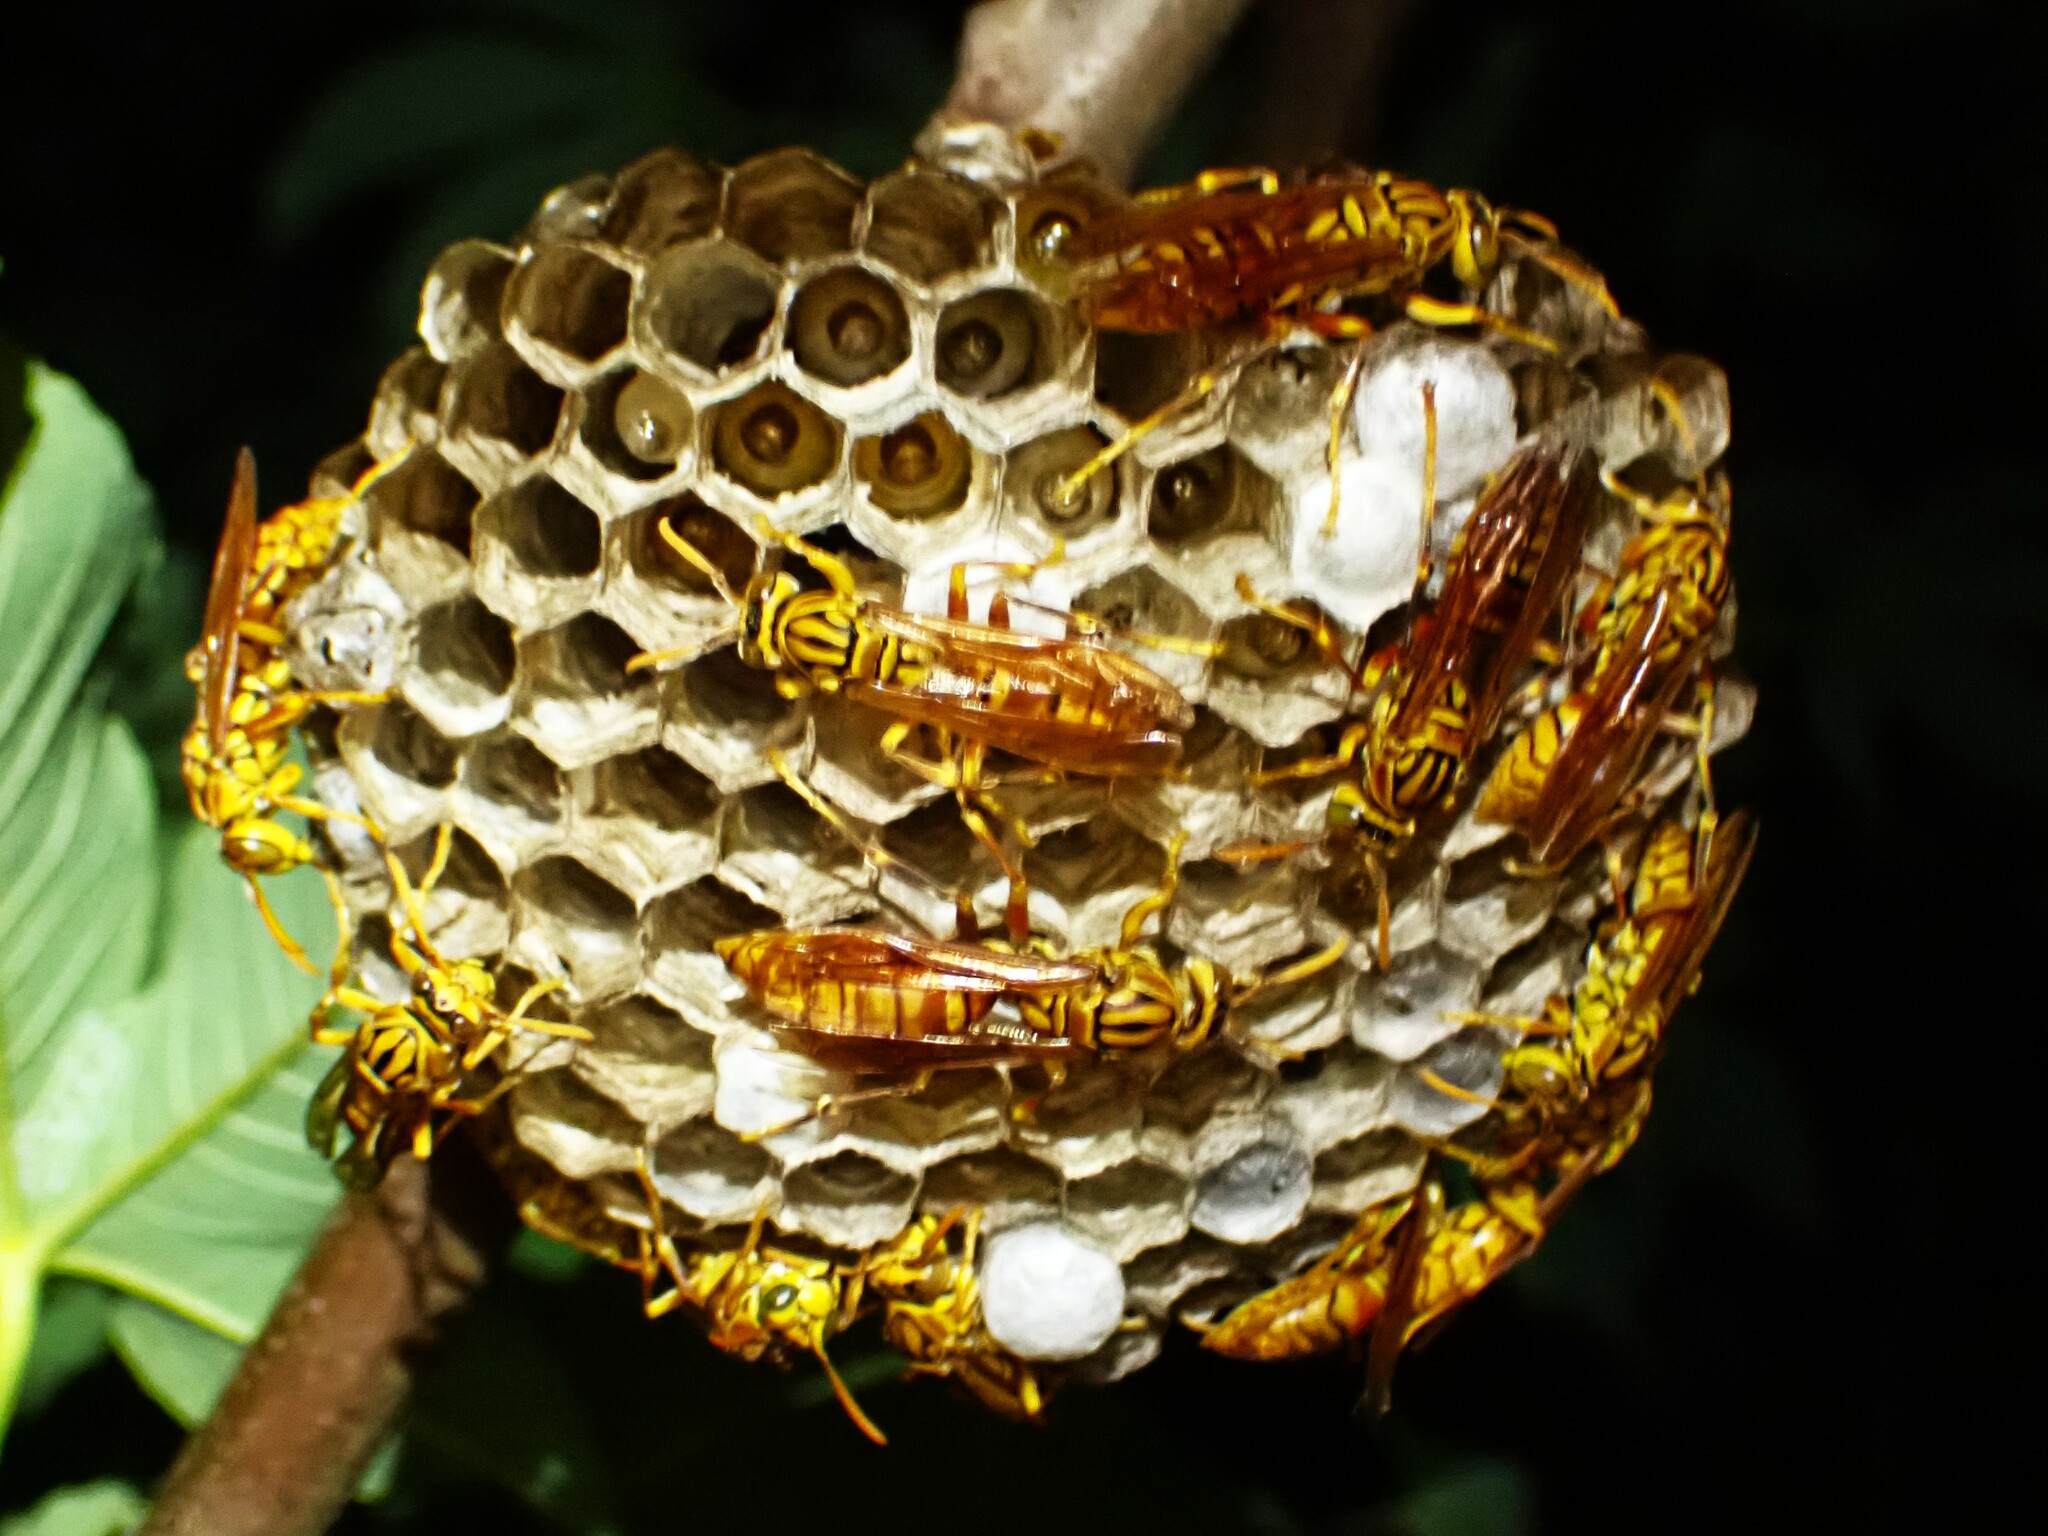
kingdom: Animalia
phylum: Arthropoda
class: Insecta
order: Hymenoptera
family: Eumenidae
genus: Polistes
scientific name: Polistes olivaceus
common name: Paper wasp
